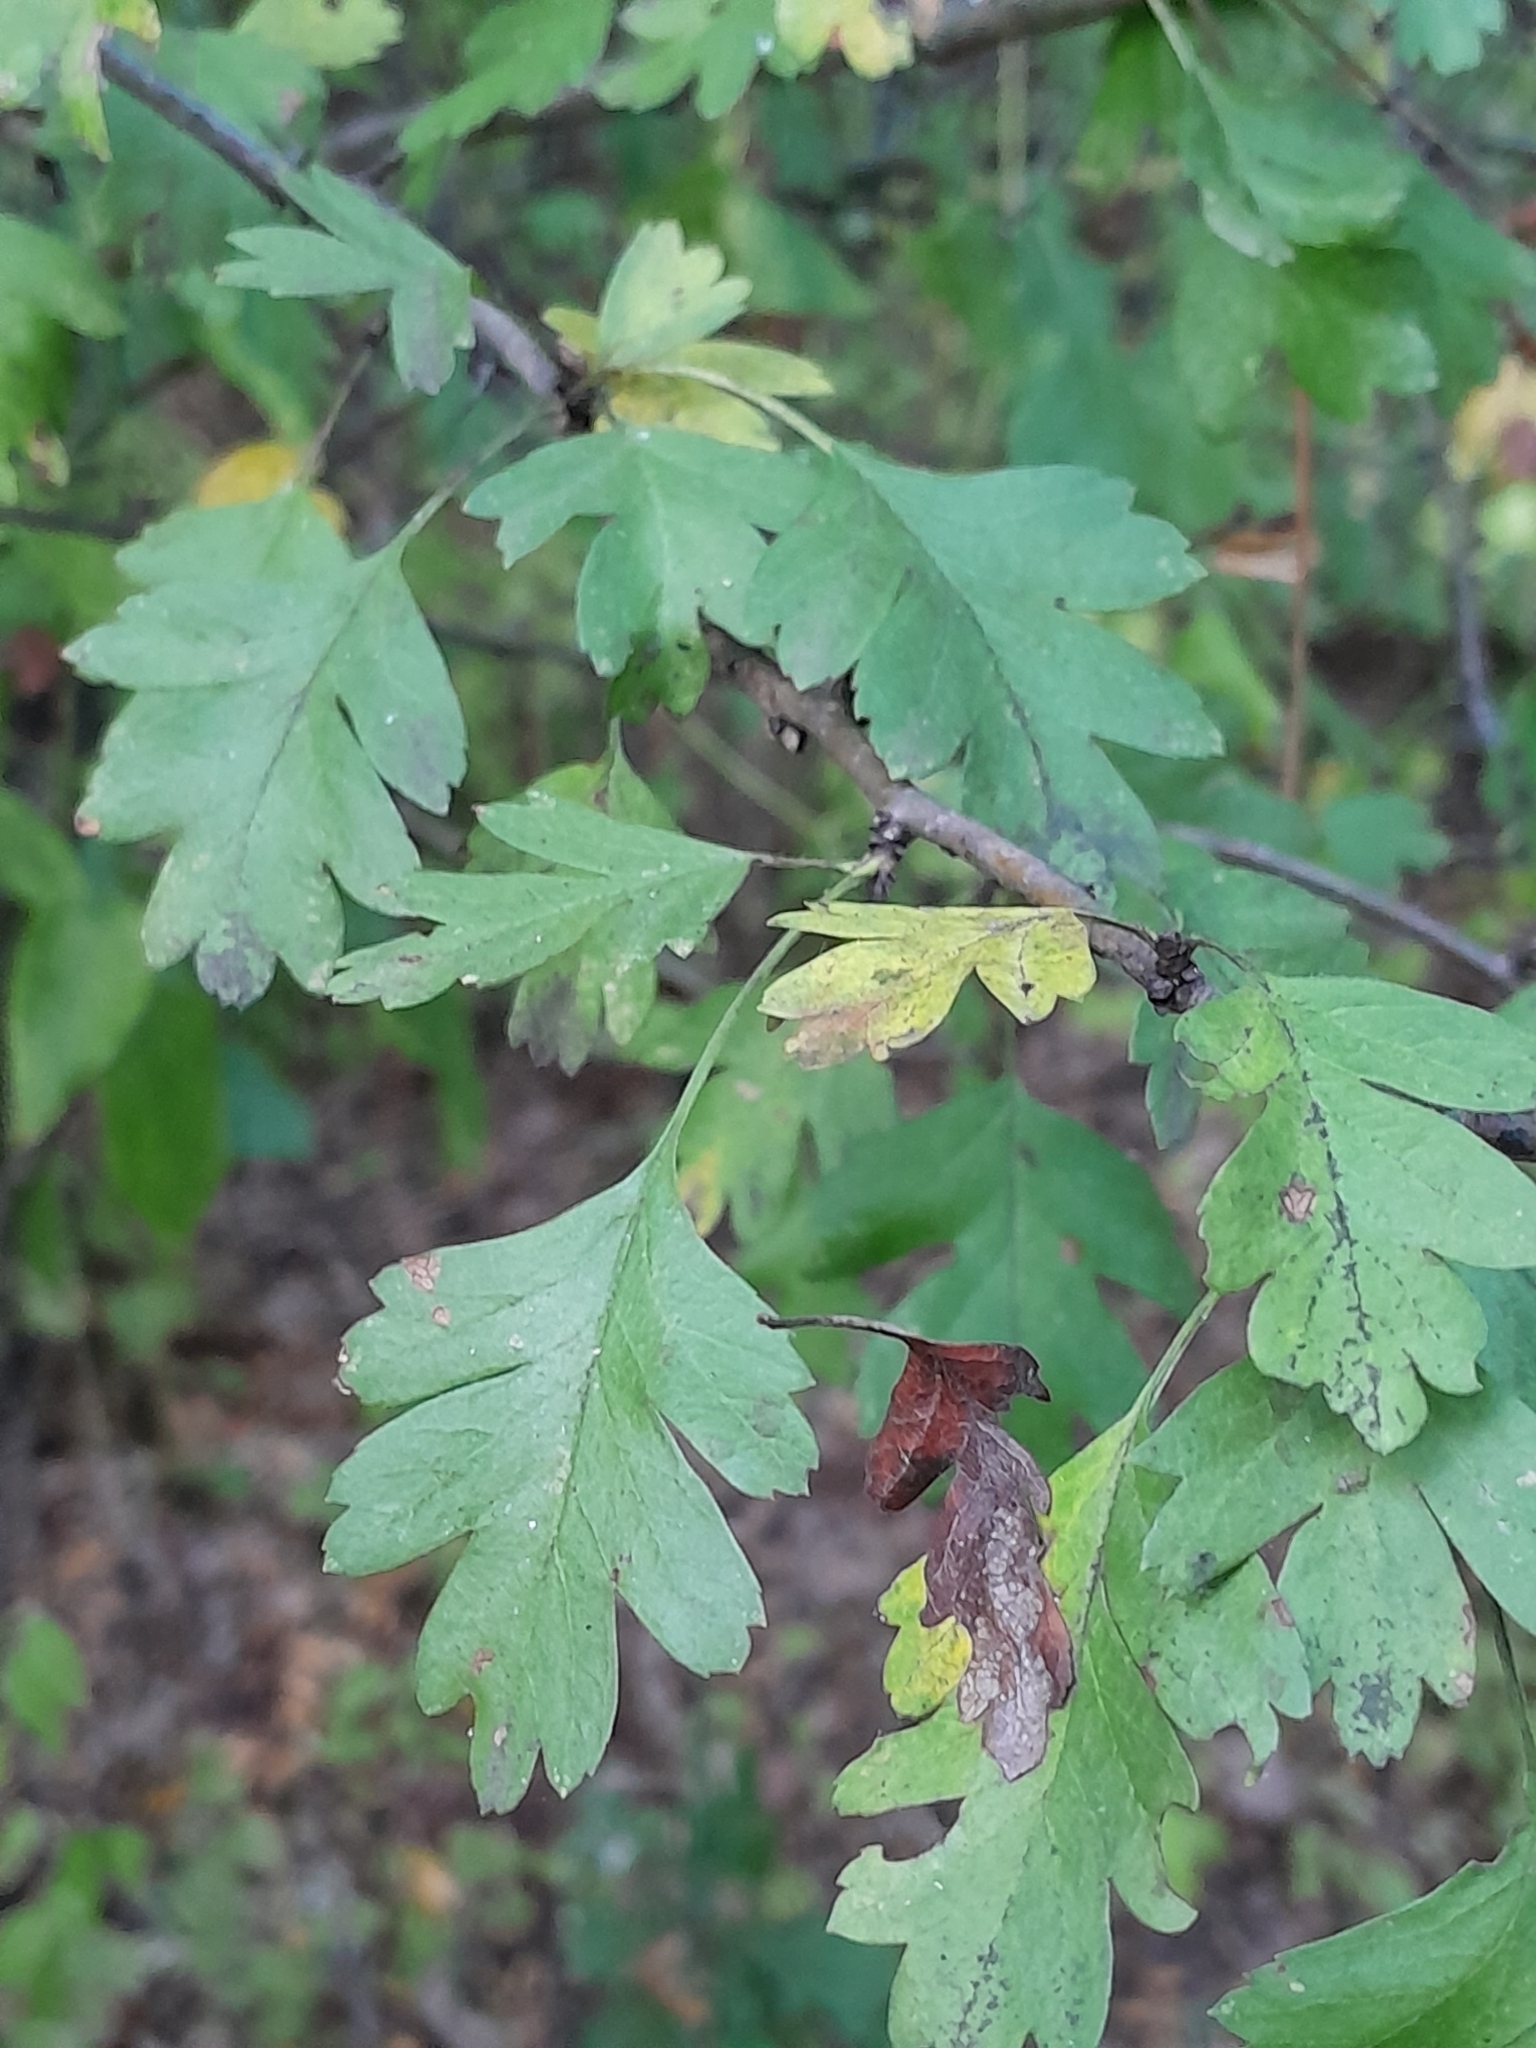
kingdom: Plantae
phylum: Tracheophyta
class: Magnoliopsida
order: Rosales
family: Rosaceae
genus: Crataegus
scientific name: Crataegus monogyna
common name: Hawthorn
